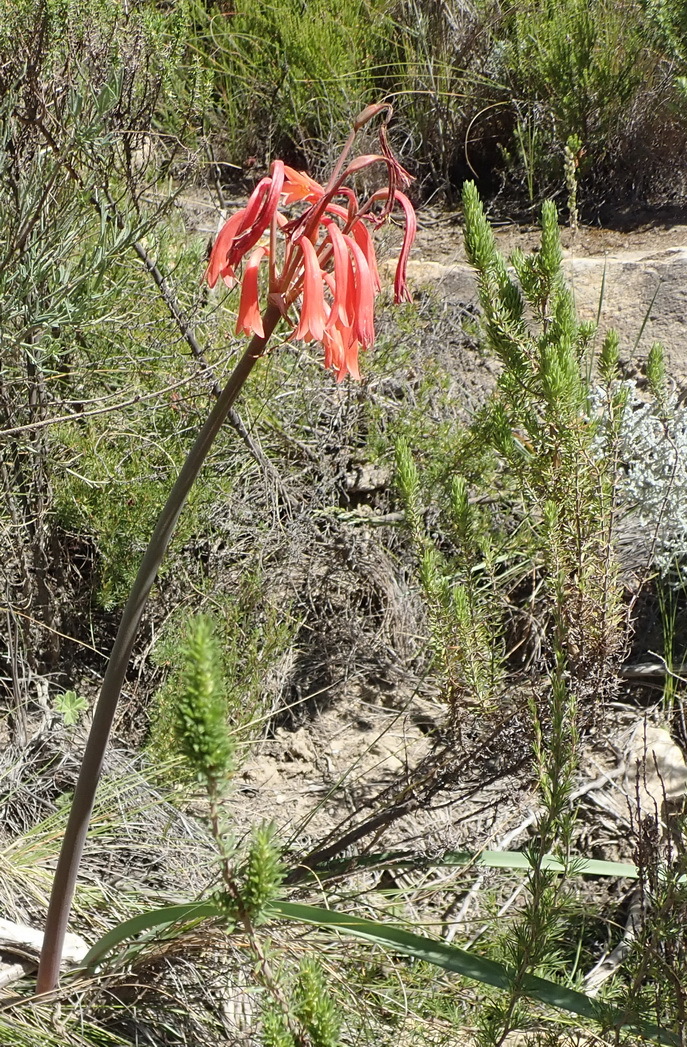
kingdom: Plantae
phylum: Tracheophyta
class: Liliopsida
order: Asparagales
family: Amaryllidaceae
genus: Cyrtanthus
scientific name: Cyrtanthus angustifolius
